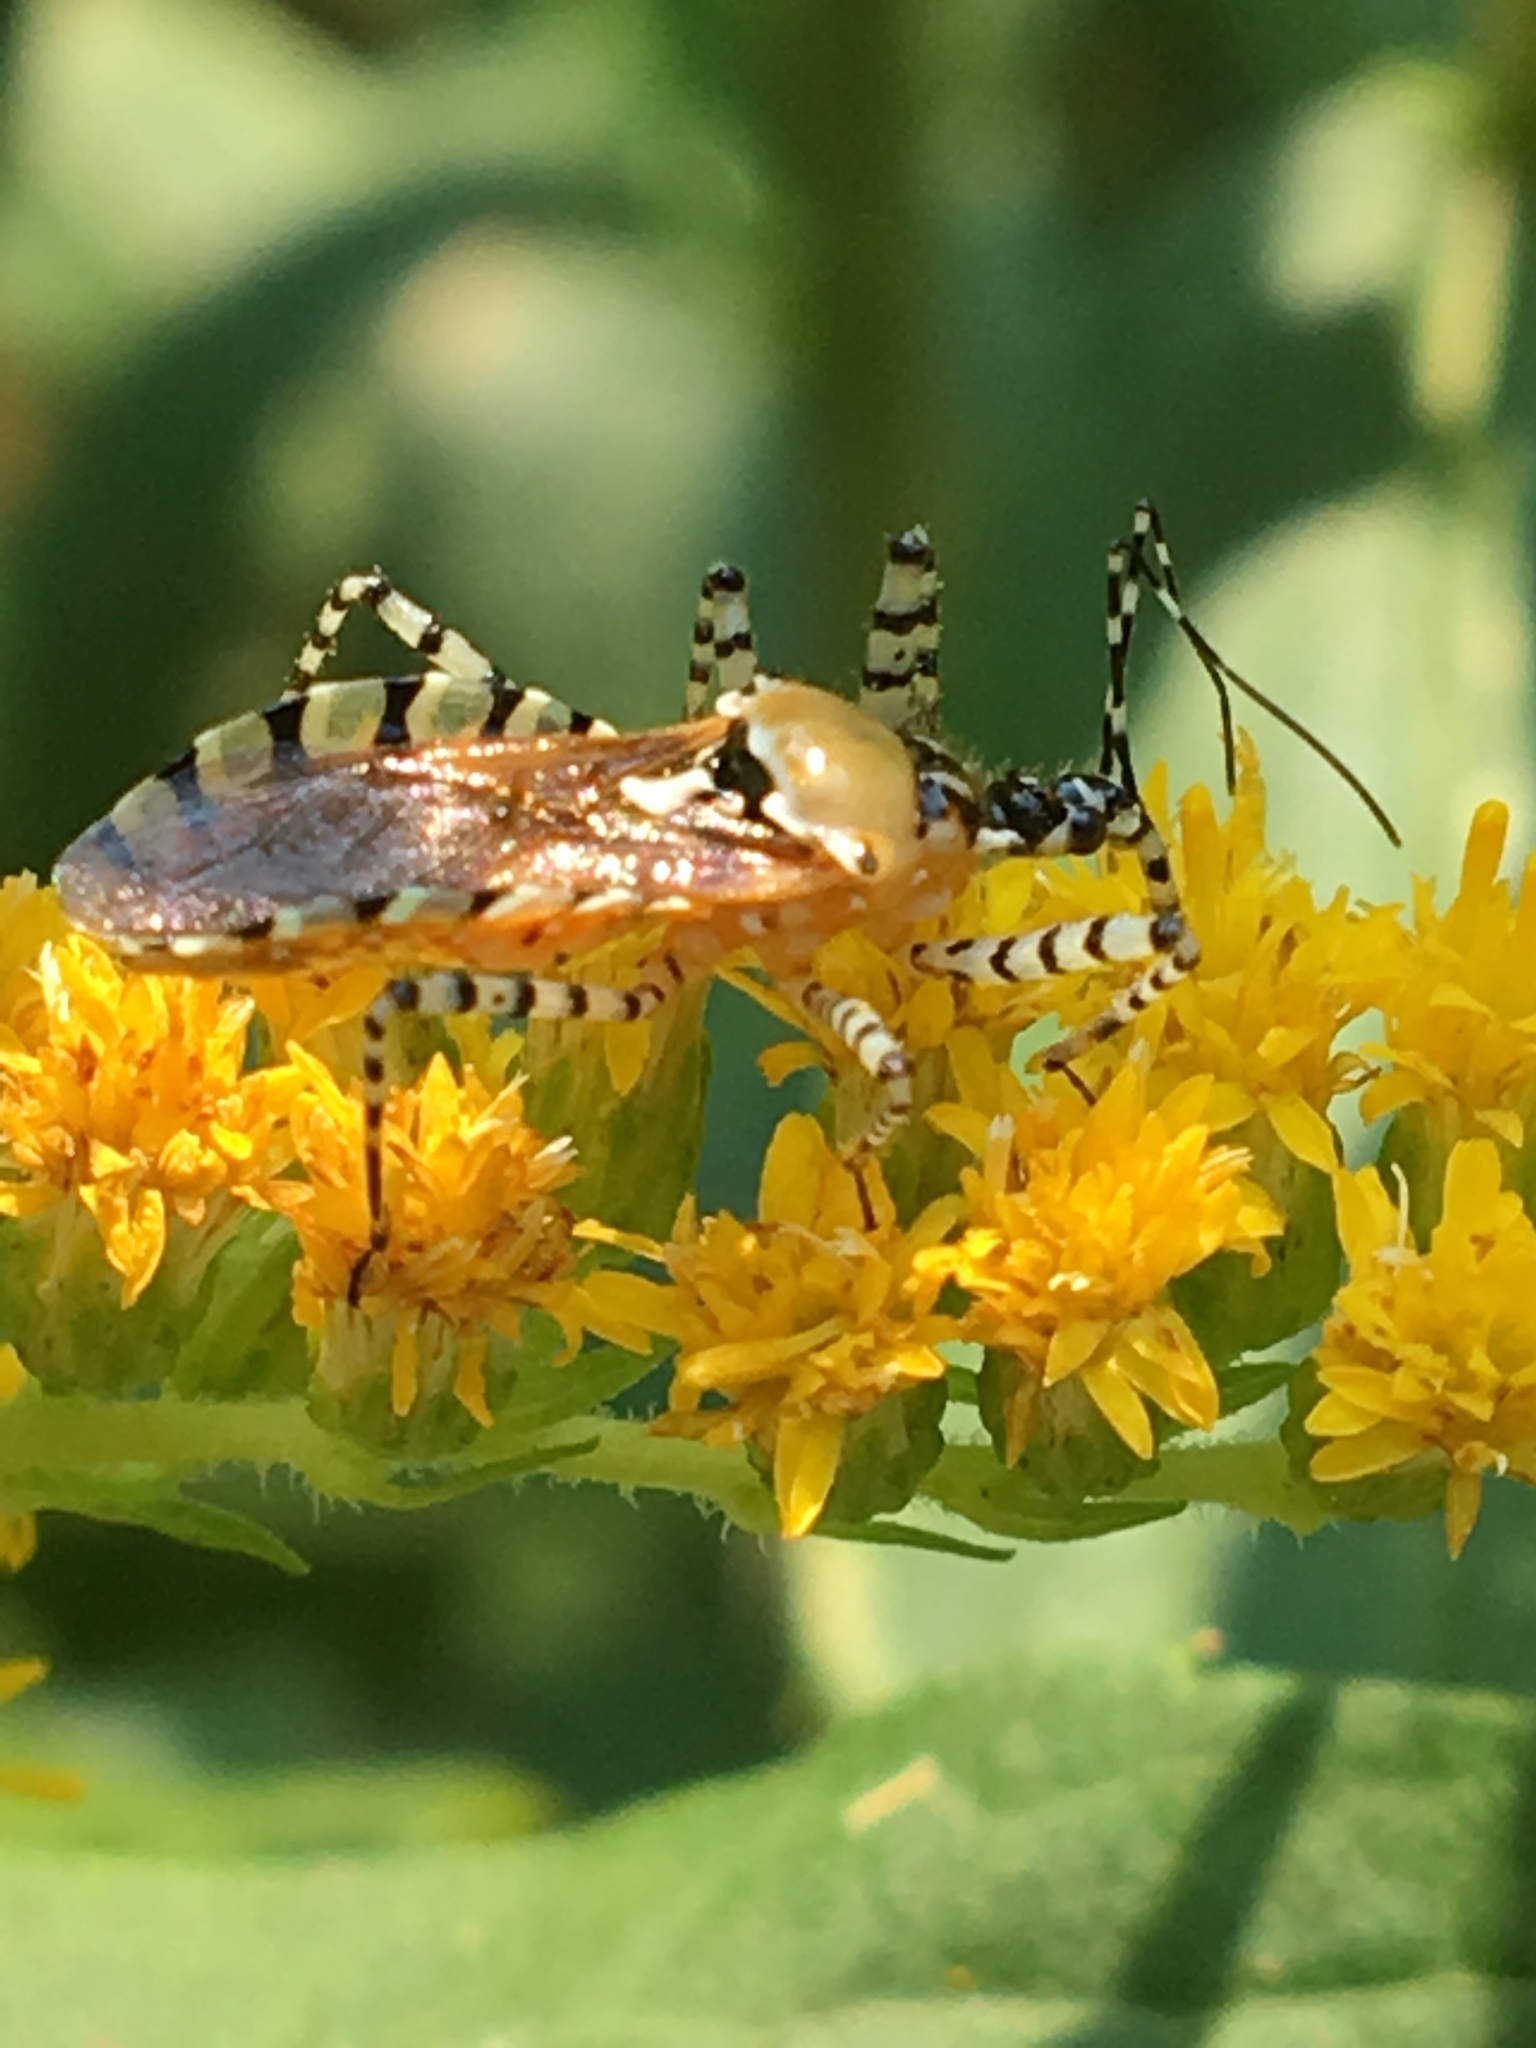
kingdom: Animalia
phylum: Arthropoda
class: Insecta
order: Hemiptera
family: Reduviidae
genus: Pselliopus
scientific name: Pselliopus cinctus
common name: Ringed assassin bug
